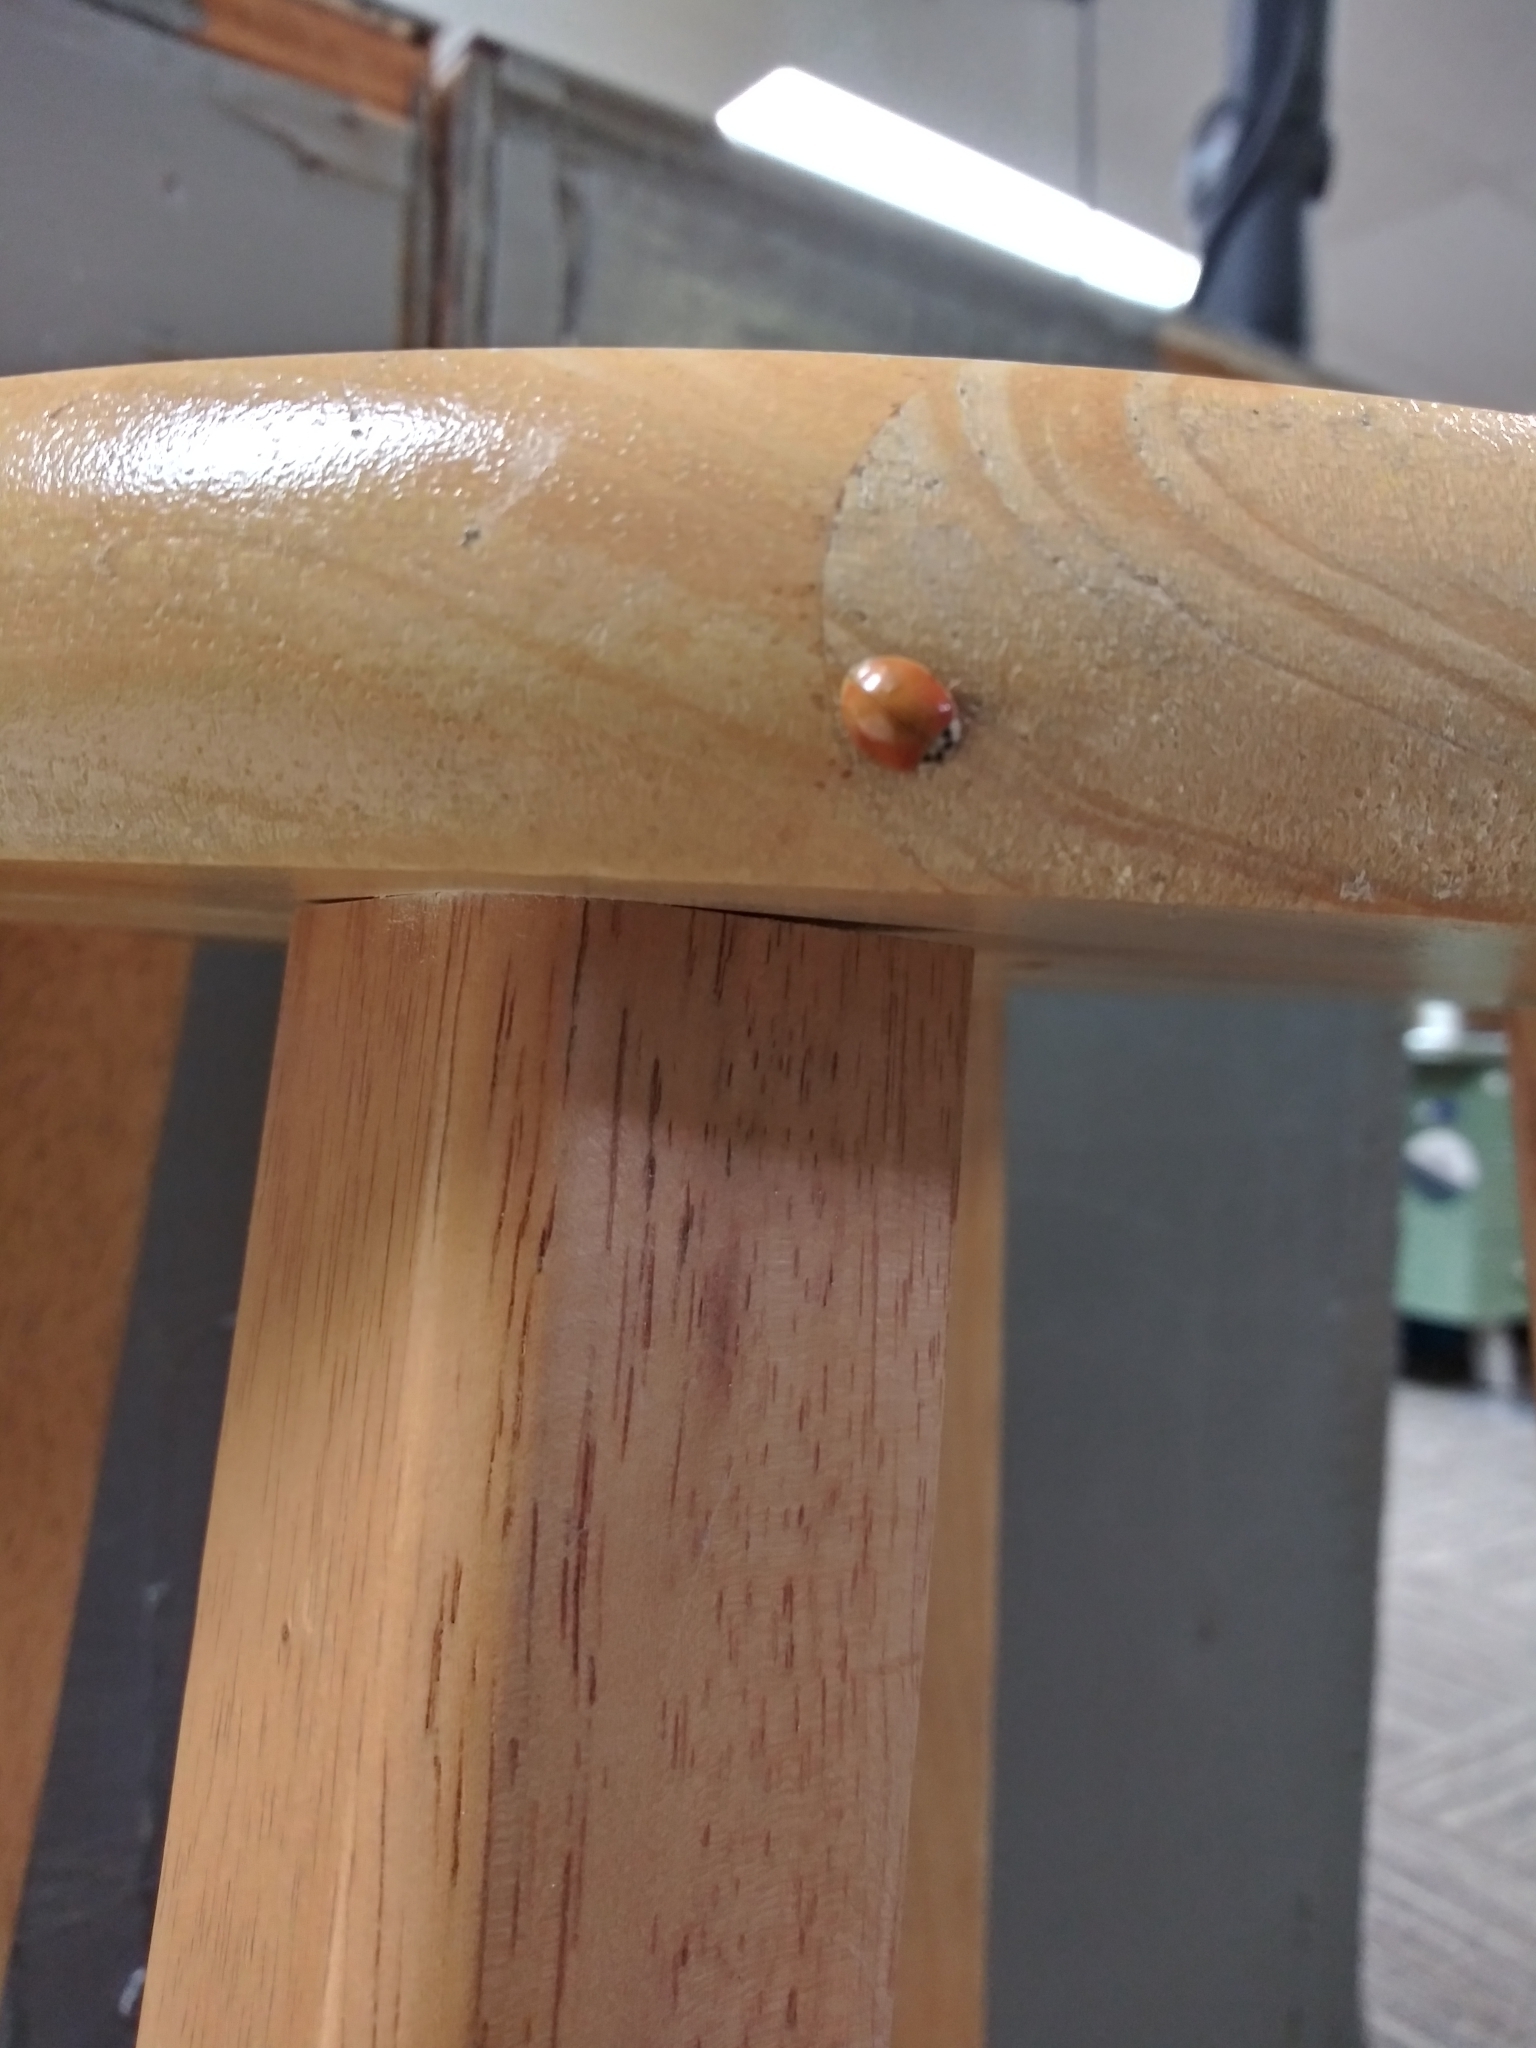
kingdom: Animalia
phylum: Arthropoda
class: Insecta
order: Coleoptera
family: Coccinellidae
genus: Harmonia
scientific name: Harmonia axyridis
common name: Harlequin ladybird
